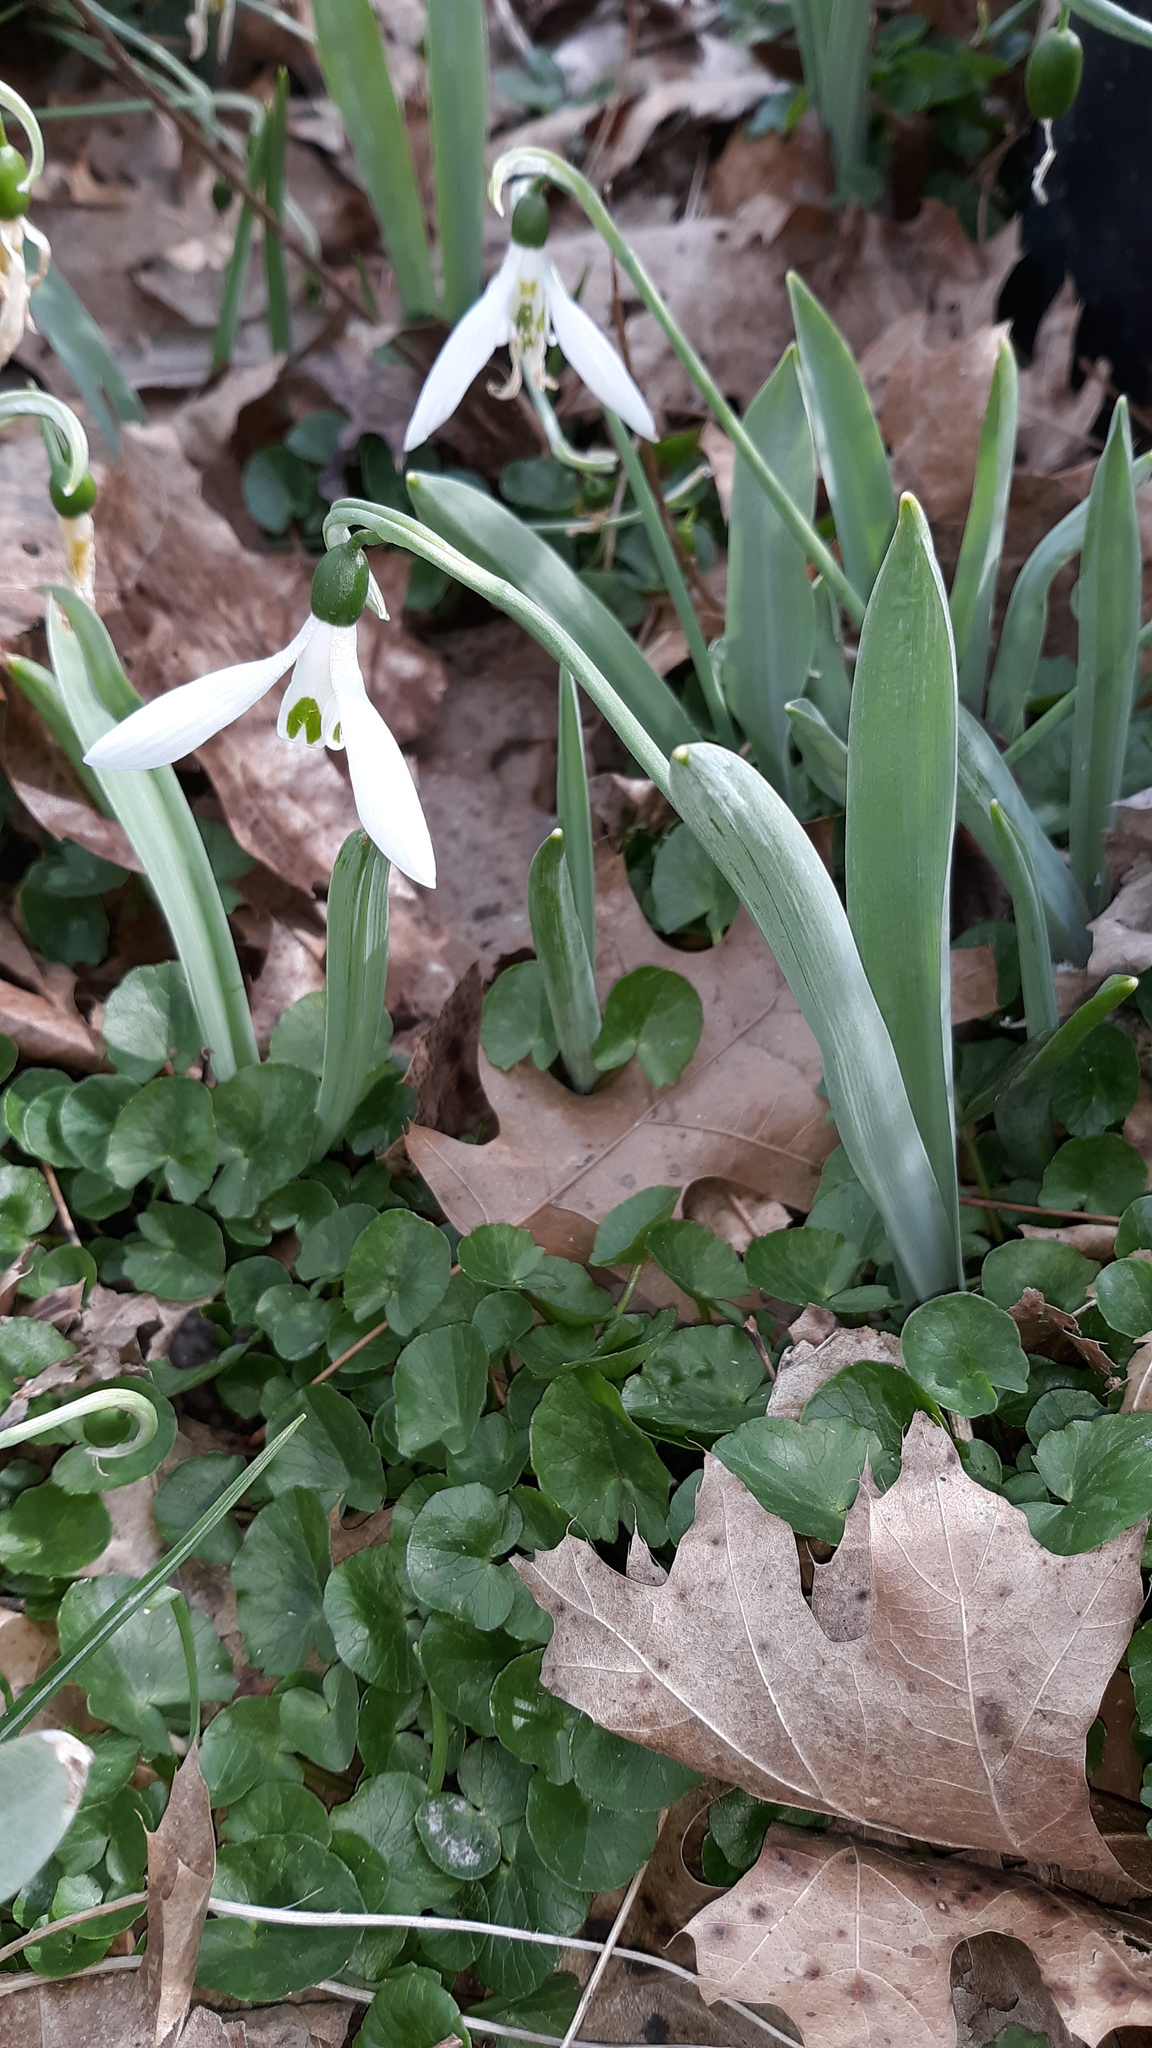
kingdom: Plantae
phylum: Tracheophyta
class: Liliopsida
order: Asparagales
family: Amaryllidaceae
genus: Galanthus
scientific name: Galanthus elwesii
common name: Greater snowdrop
